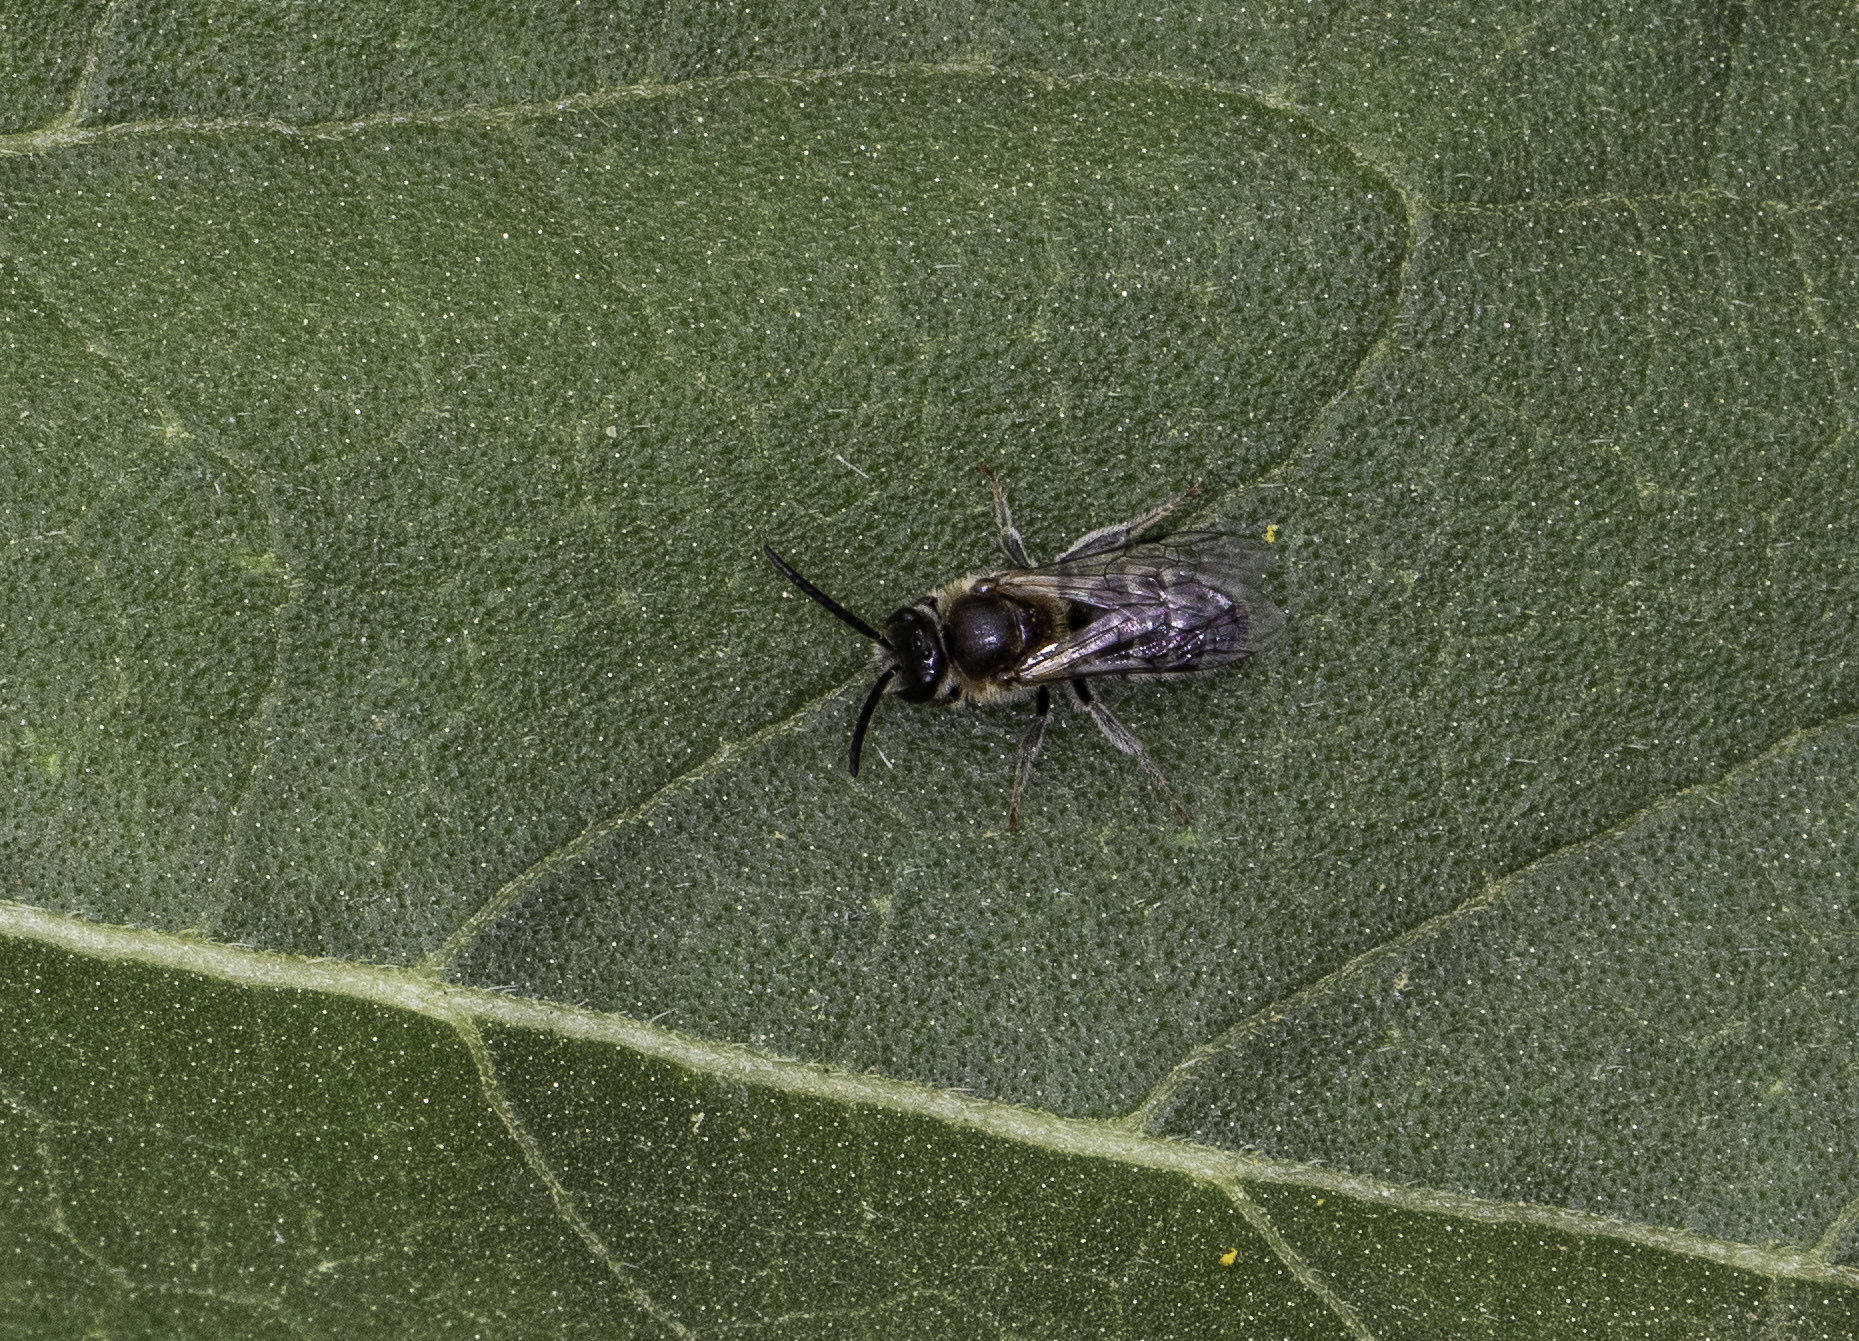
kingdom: Animalia
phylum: Arthropoda
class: Insecta
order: Hymenoptera
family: Halictidae
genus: Lasioglossum
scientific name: Lasioglossum sisymbrii
